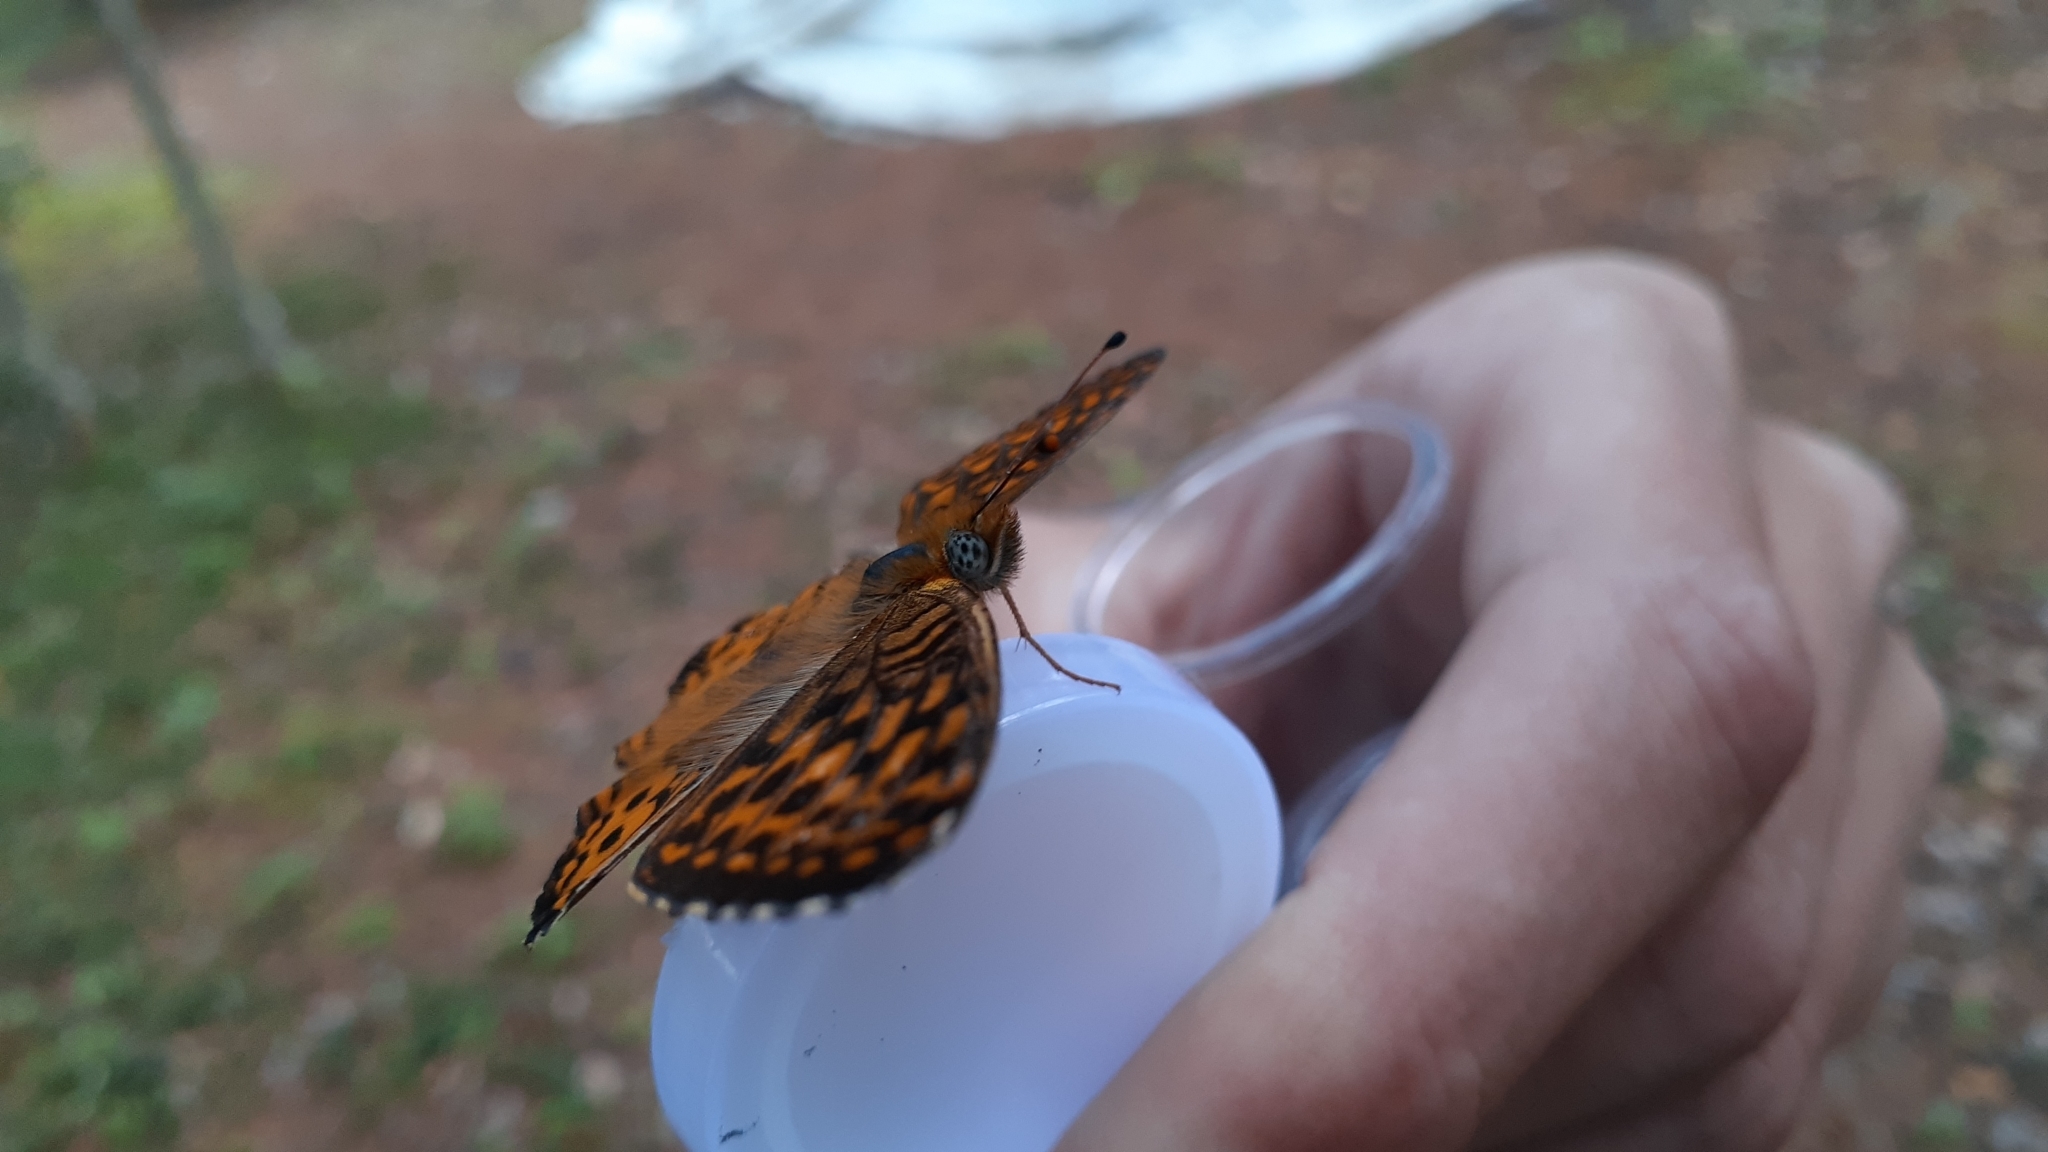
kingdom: Animalia
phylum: Arthropoda
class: Insecta
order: Lepidoptera
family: Nymphalidae
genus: Speyeria
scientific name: Speyeria atlantis
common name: Atlantis fritillary
